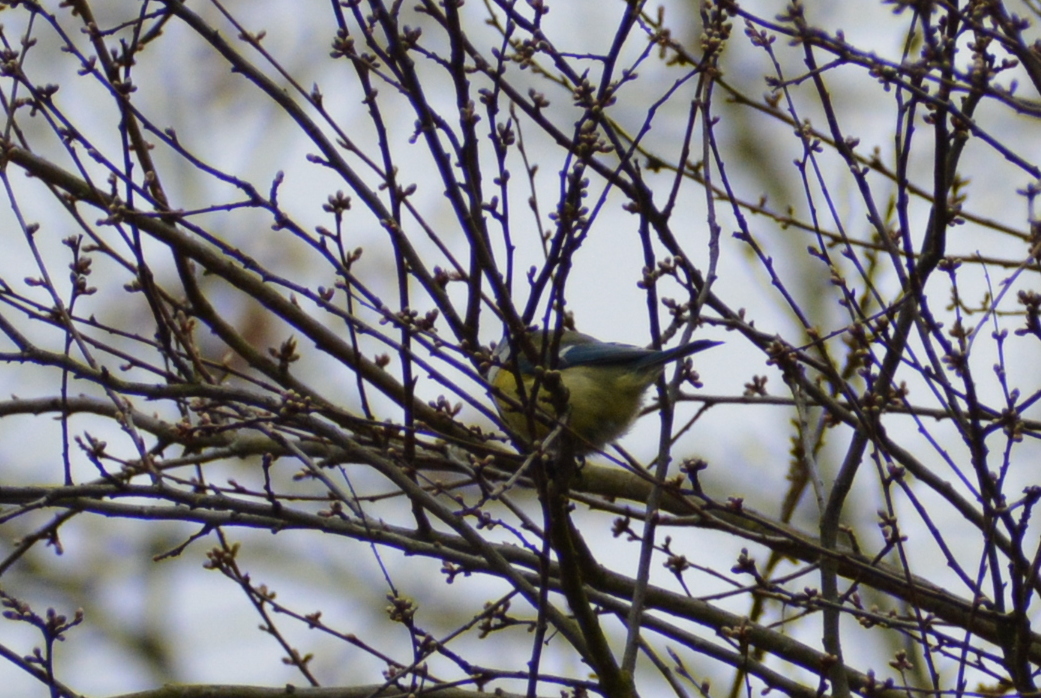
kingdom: Animalia
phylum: Chordata
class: Aves
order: Passeriformes
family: Paridae
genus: Cyanistes
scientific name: Cyanistes caeruleus
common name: Eurasian blue tit
